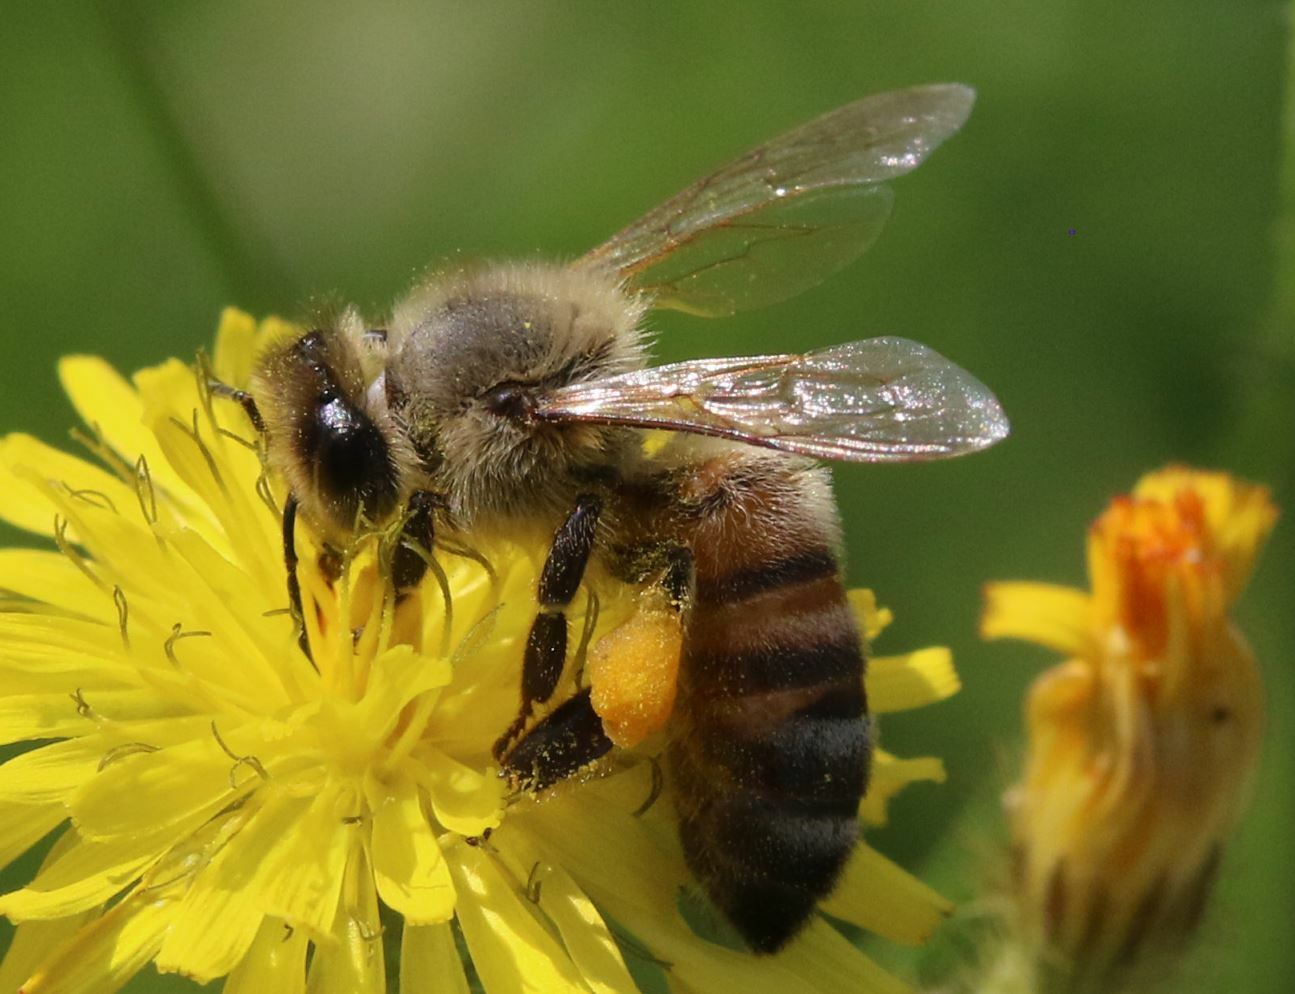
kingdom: Animalia
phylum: Arthropoda
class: Insecta
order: Hymenoptera
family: Apidae
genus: Apis
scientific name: Apis mellifera
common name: Honey bee
